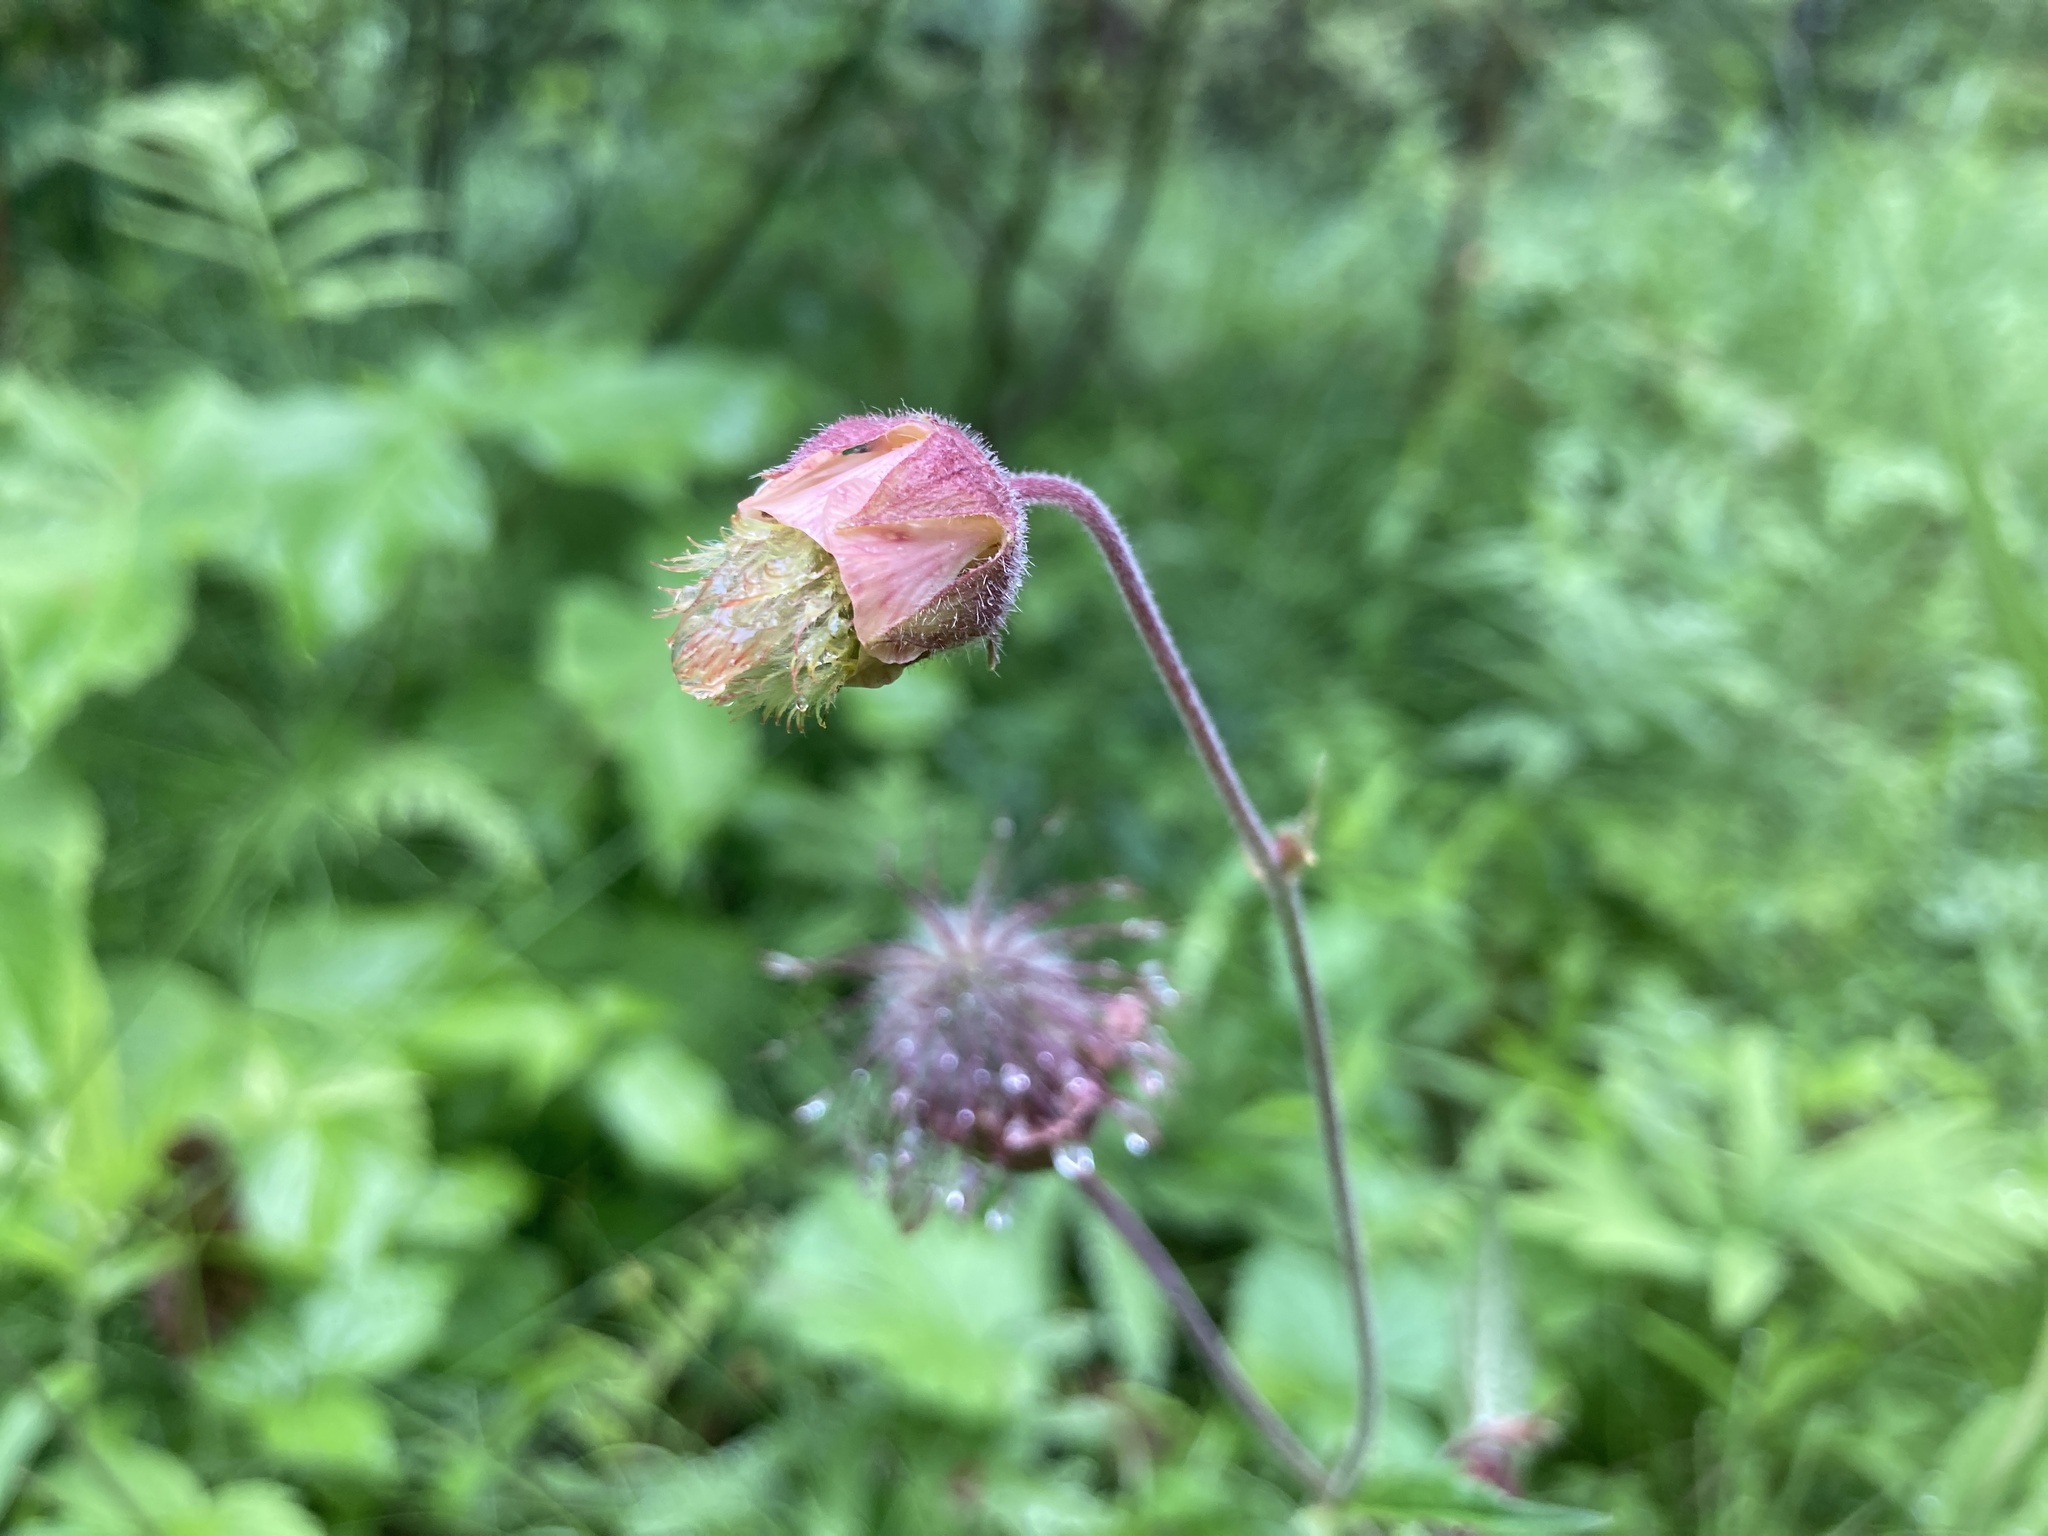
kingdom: Plantae
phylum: Tracheophyta
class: Magnoliopsida
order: Rosales
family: Rosaceae
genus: Geum
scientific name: Geum rivale
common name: Water avens
